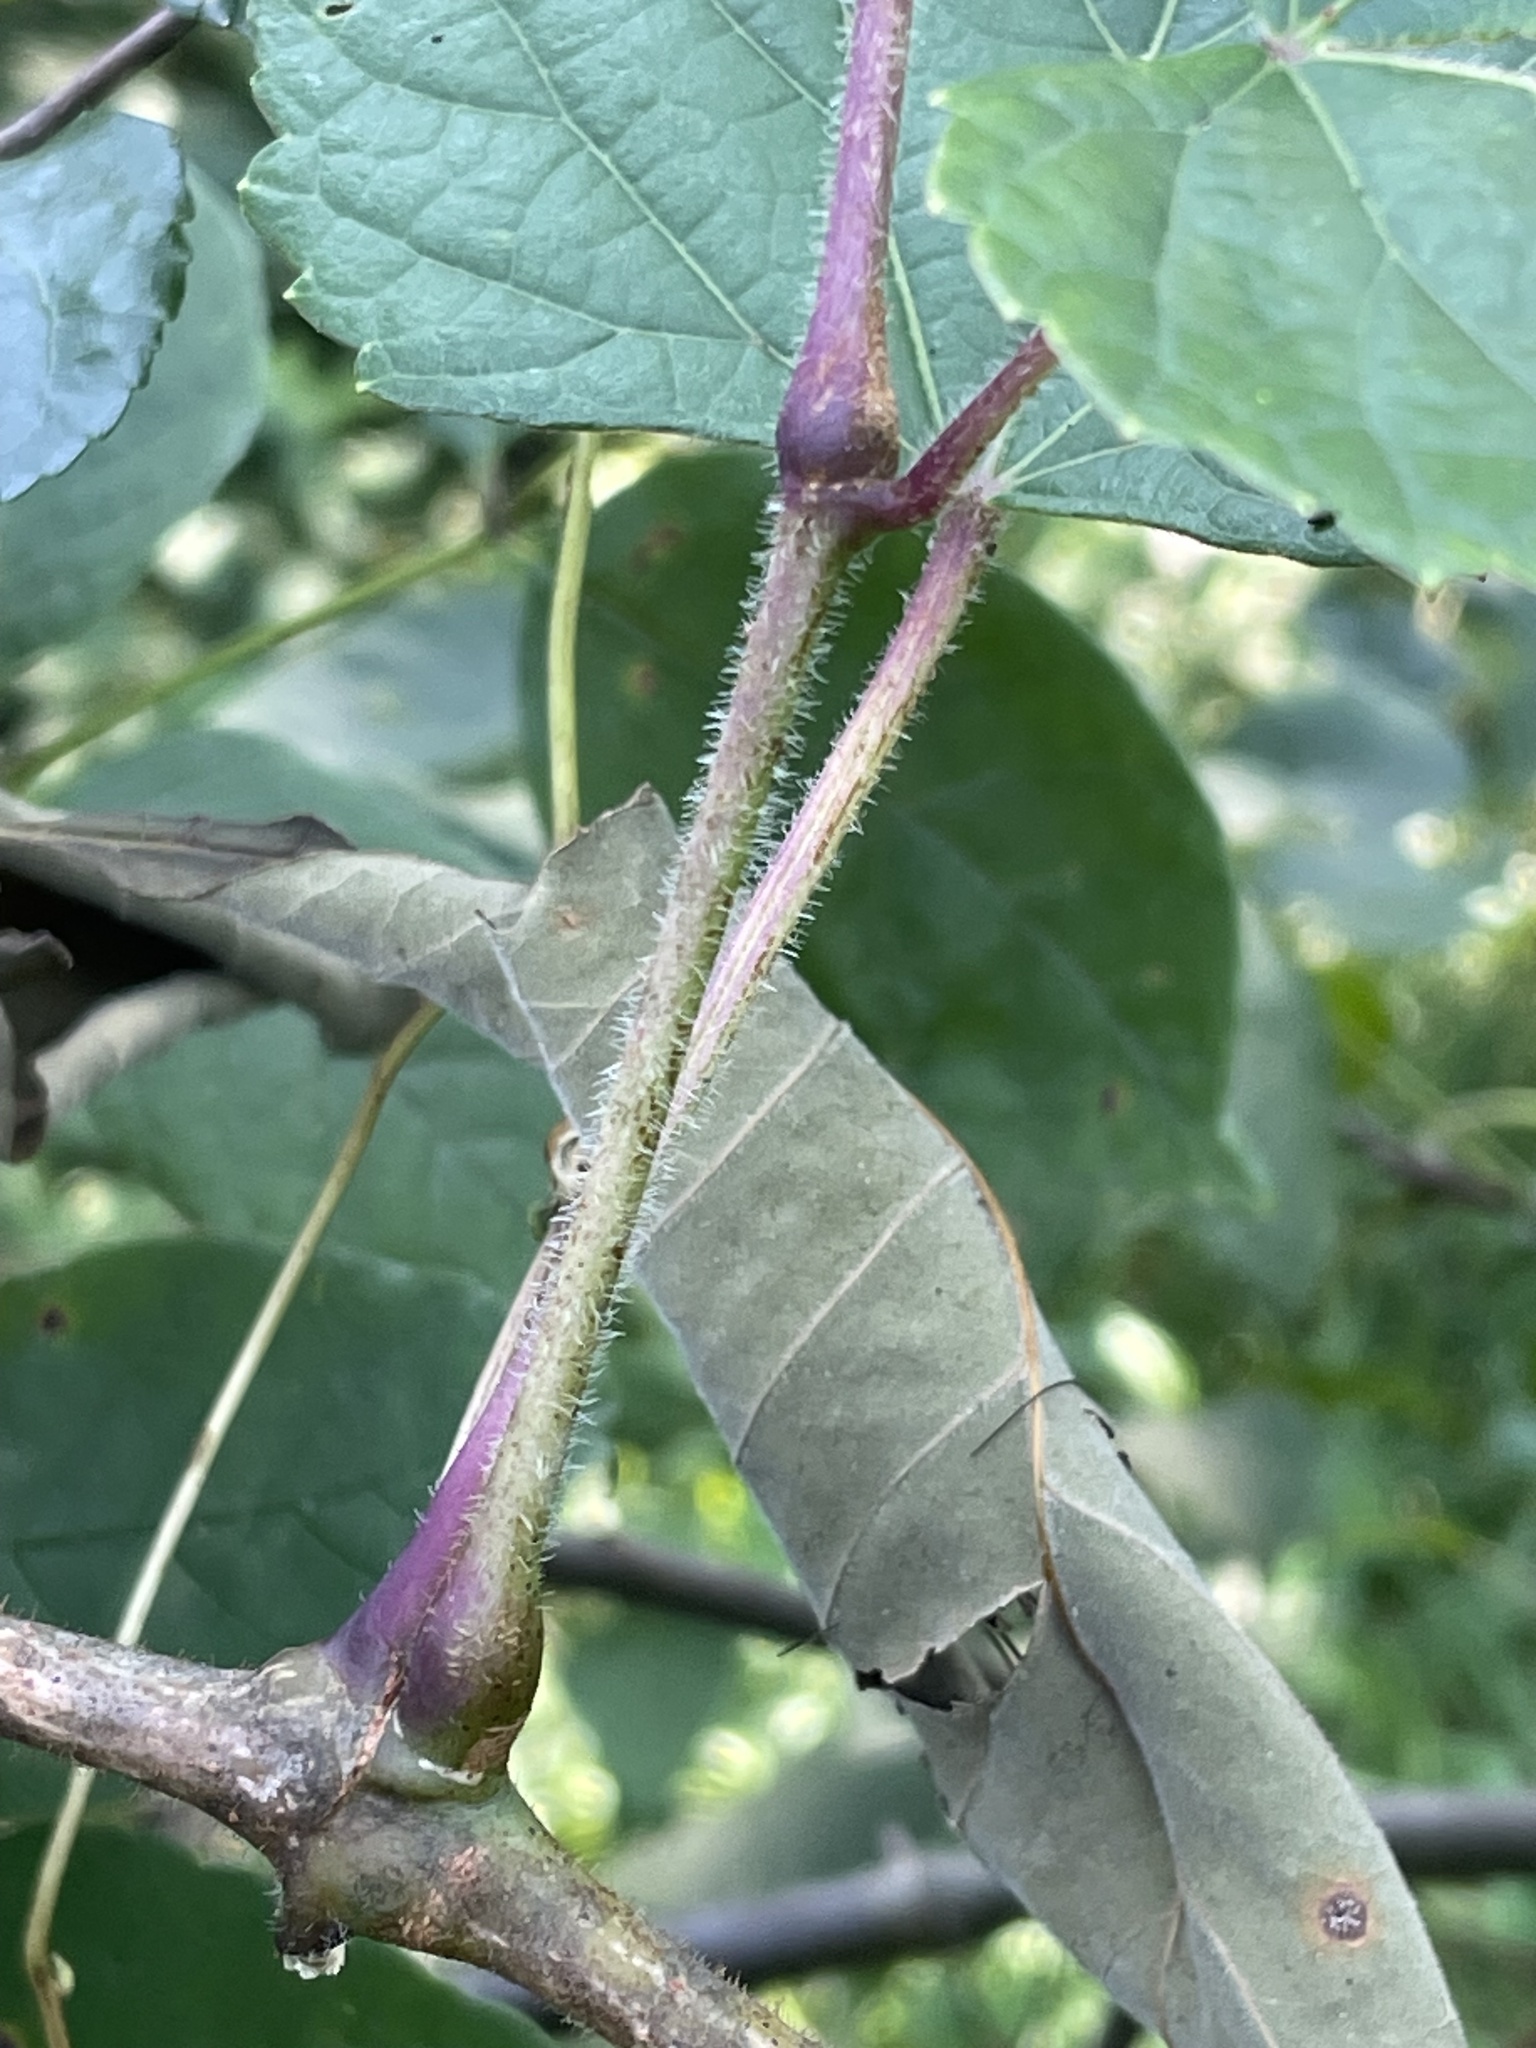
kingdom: Plantae
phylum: Tracheophyta
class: Magnoliopsida
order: Vitales
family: Vitaceae
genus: Ampelopsis
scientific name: Ampelopsis glandulosa
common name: Amur peppervine
